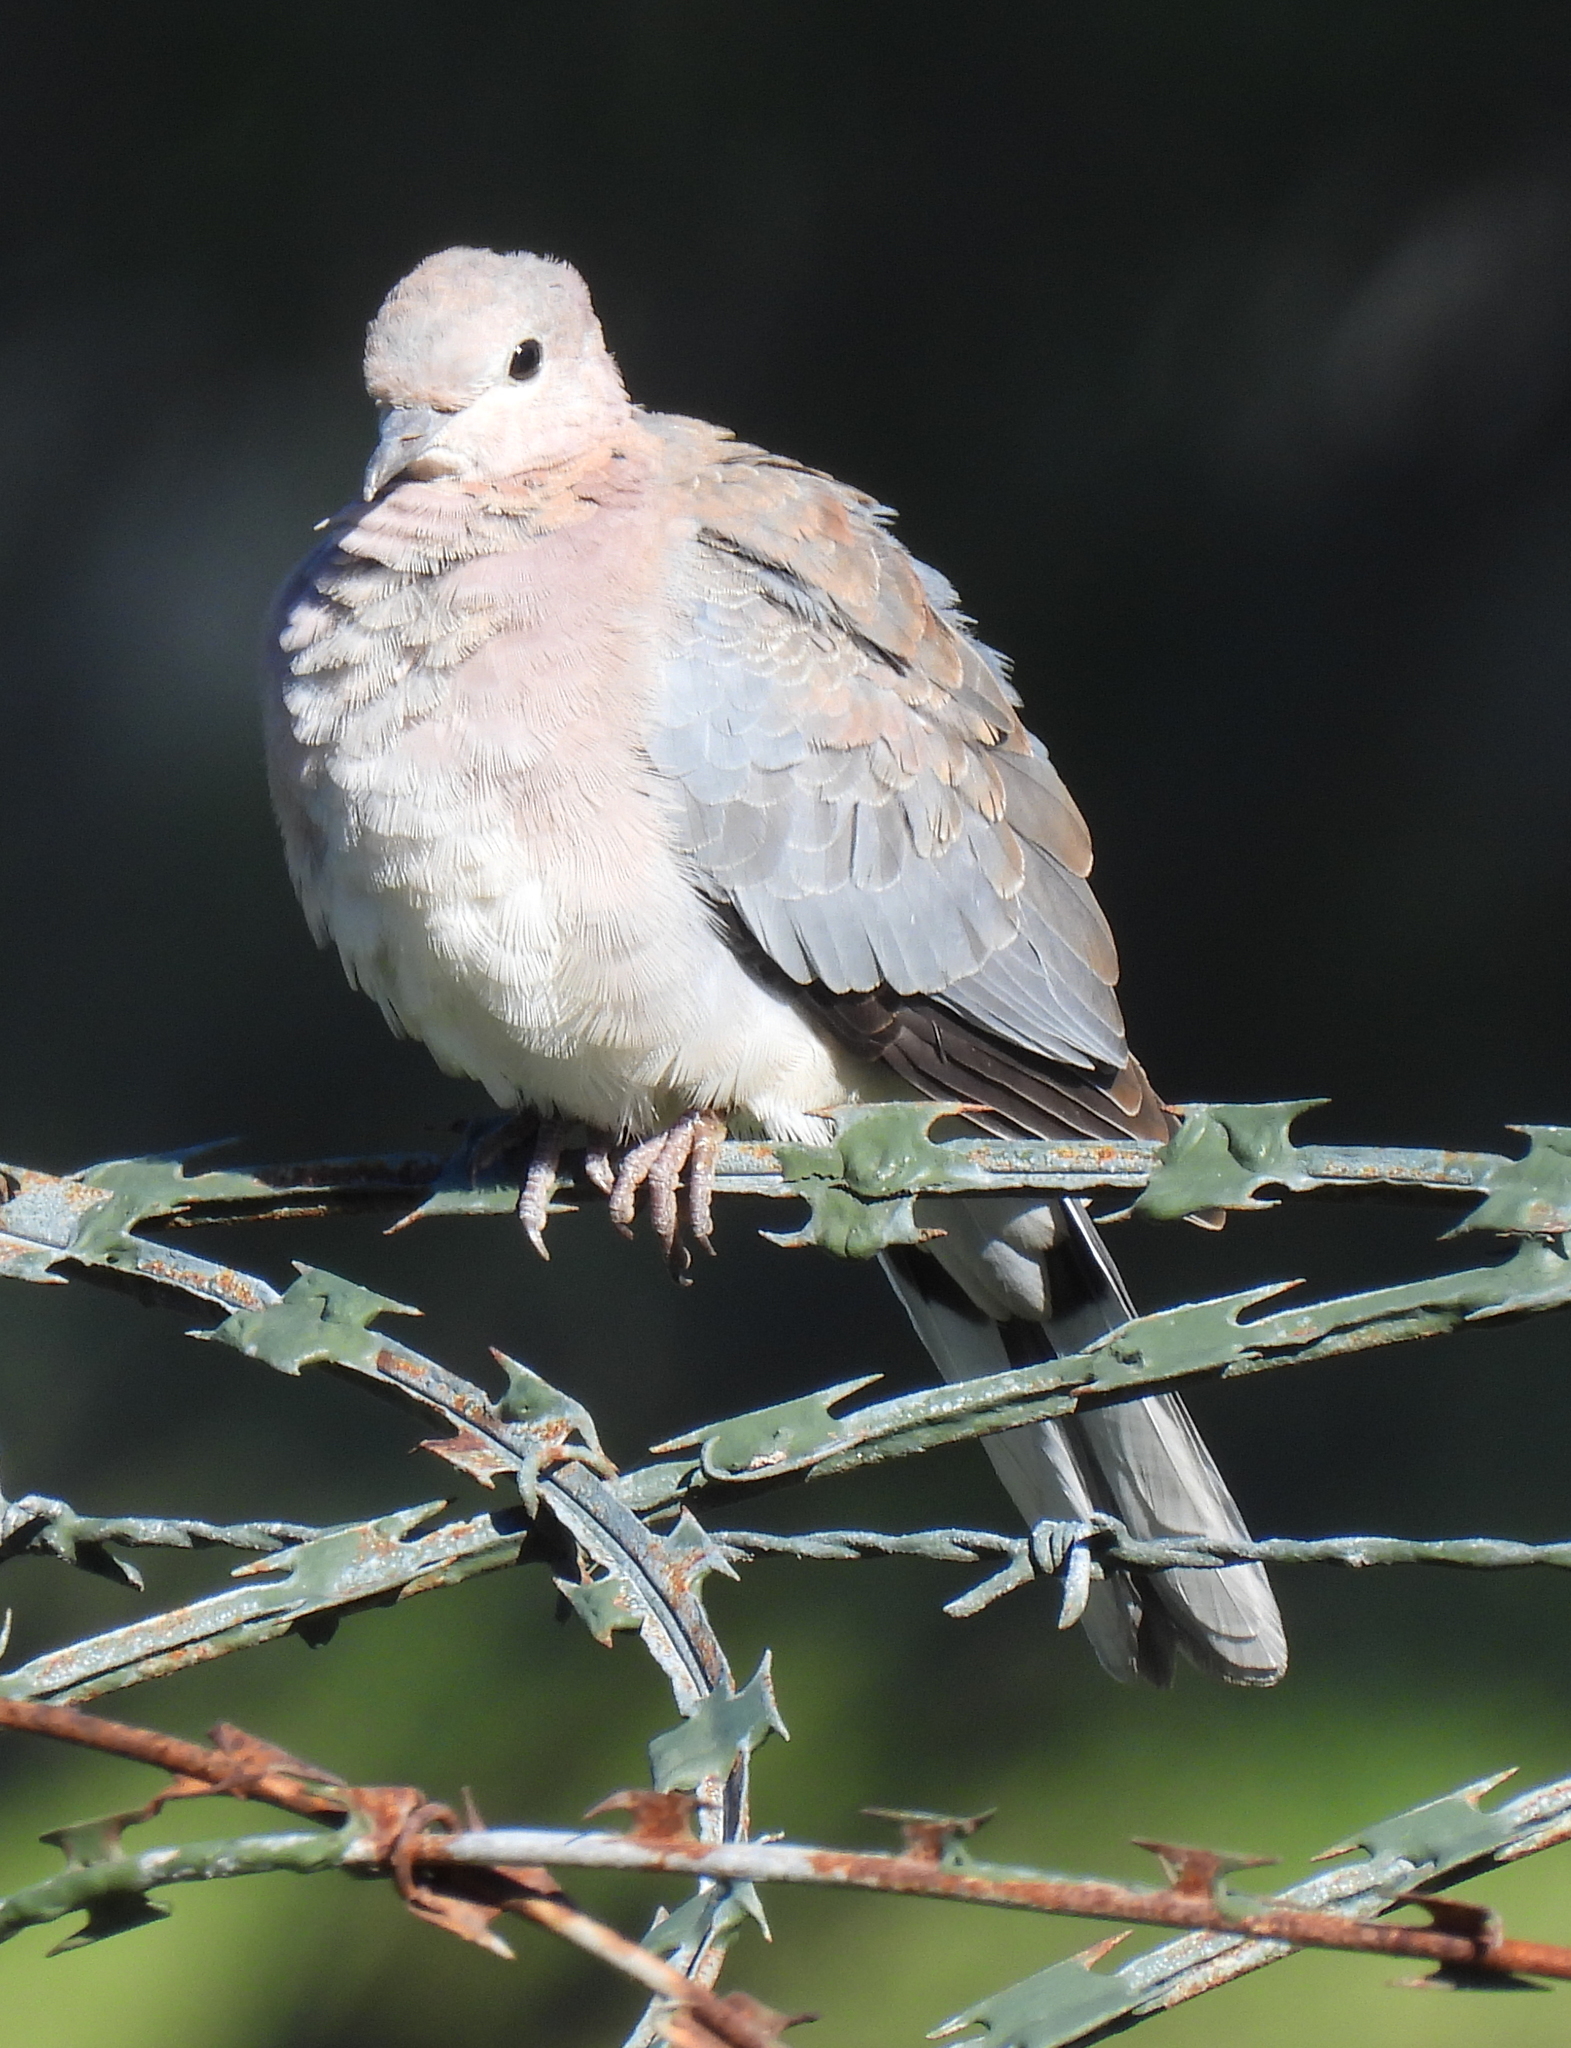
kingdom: Animalia
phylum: Chordata
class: Aves
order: Columbiformes
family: Columbidae
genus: Spilopelia
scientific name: Spilopelia senegalensis
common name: Laughing dove
